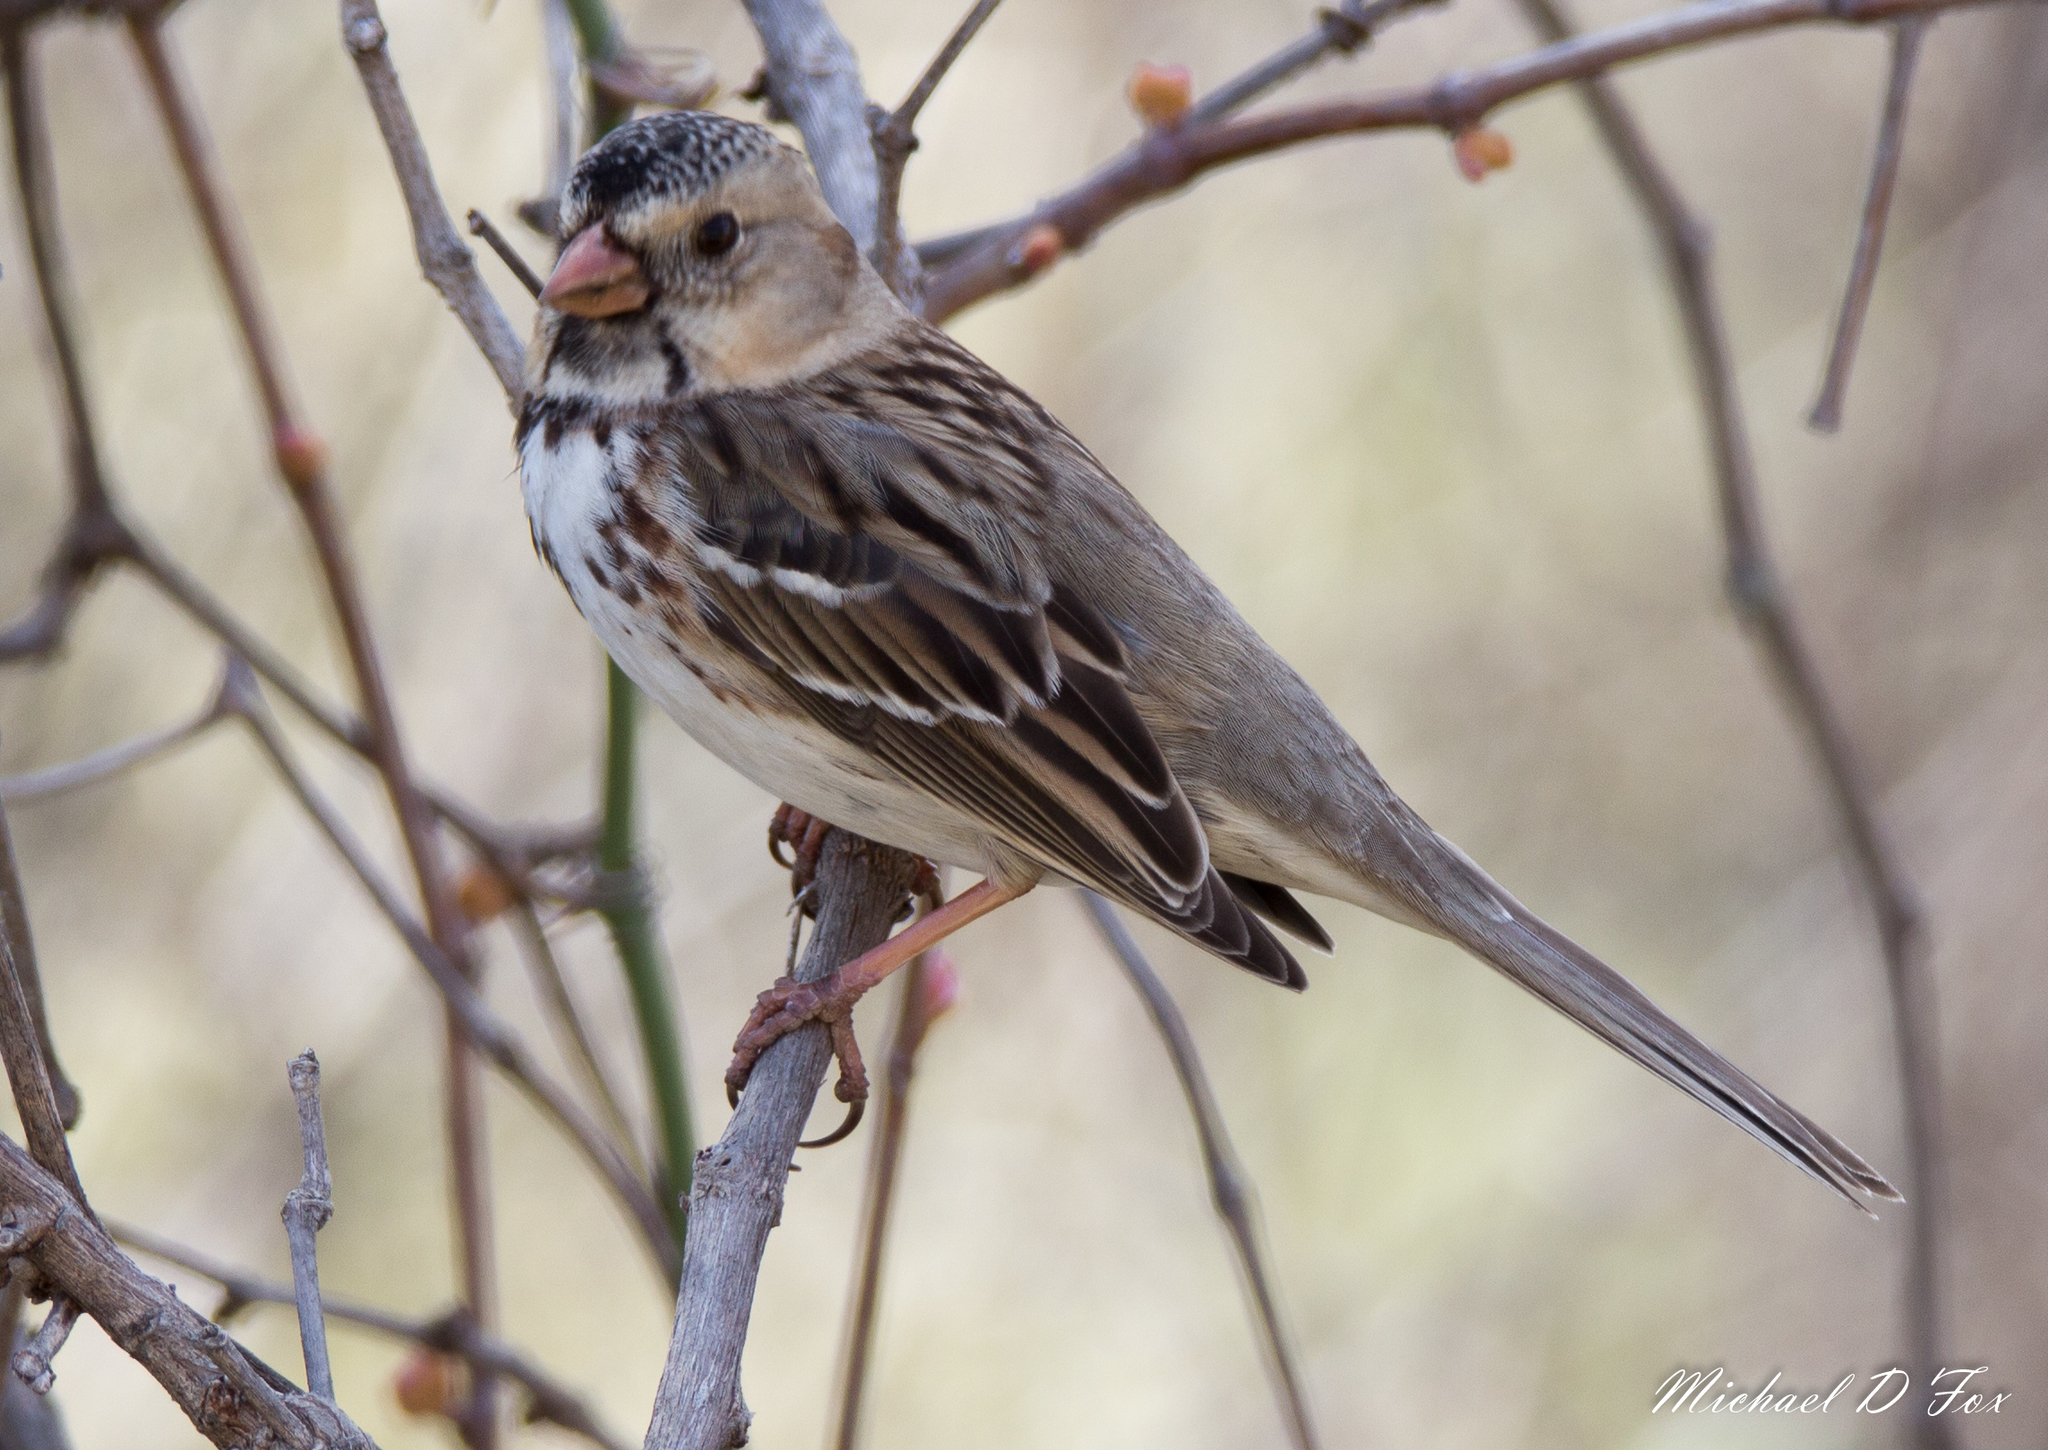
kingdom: Animalia
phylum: Chordata
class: Aves
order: Passeriformes
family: Passerellidae
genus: Zonotrichia
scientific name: Zonotrichia querula
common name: Harris's sparrow
